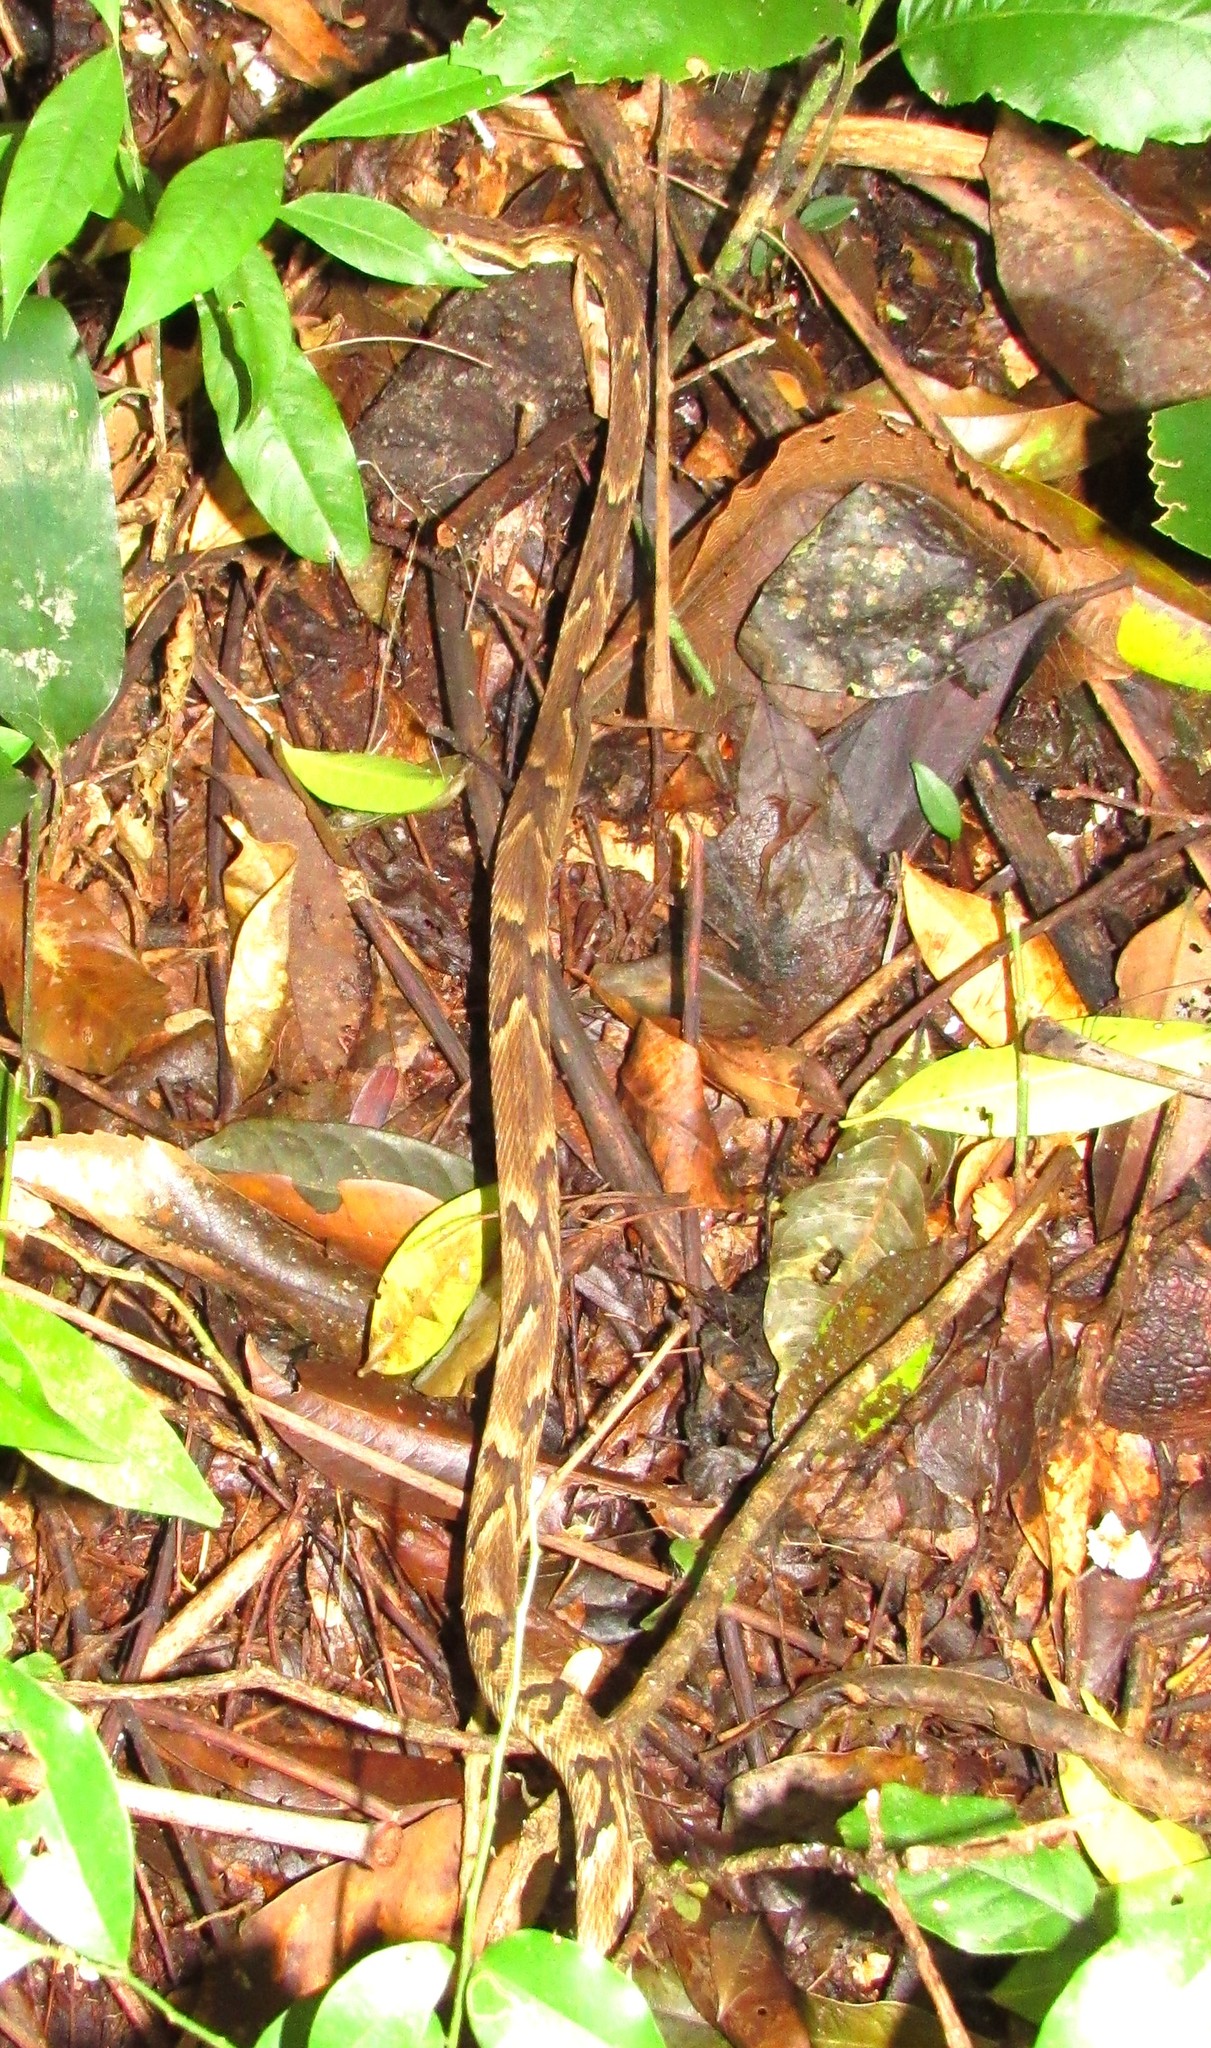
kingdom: Animalia
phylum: Chordata
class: Squamata
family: Viperidae
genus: Bothrops
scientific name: Bothrops jararaca
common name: Jararaca
